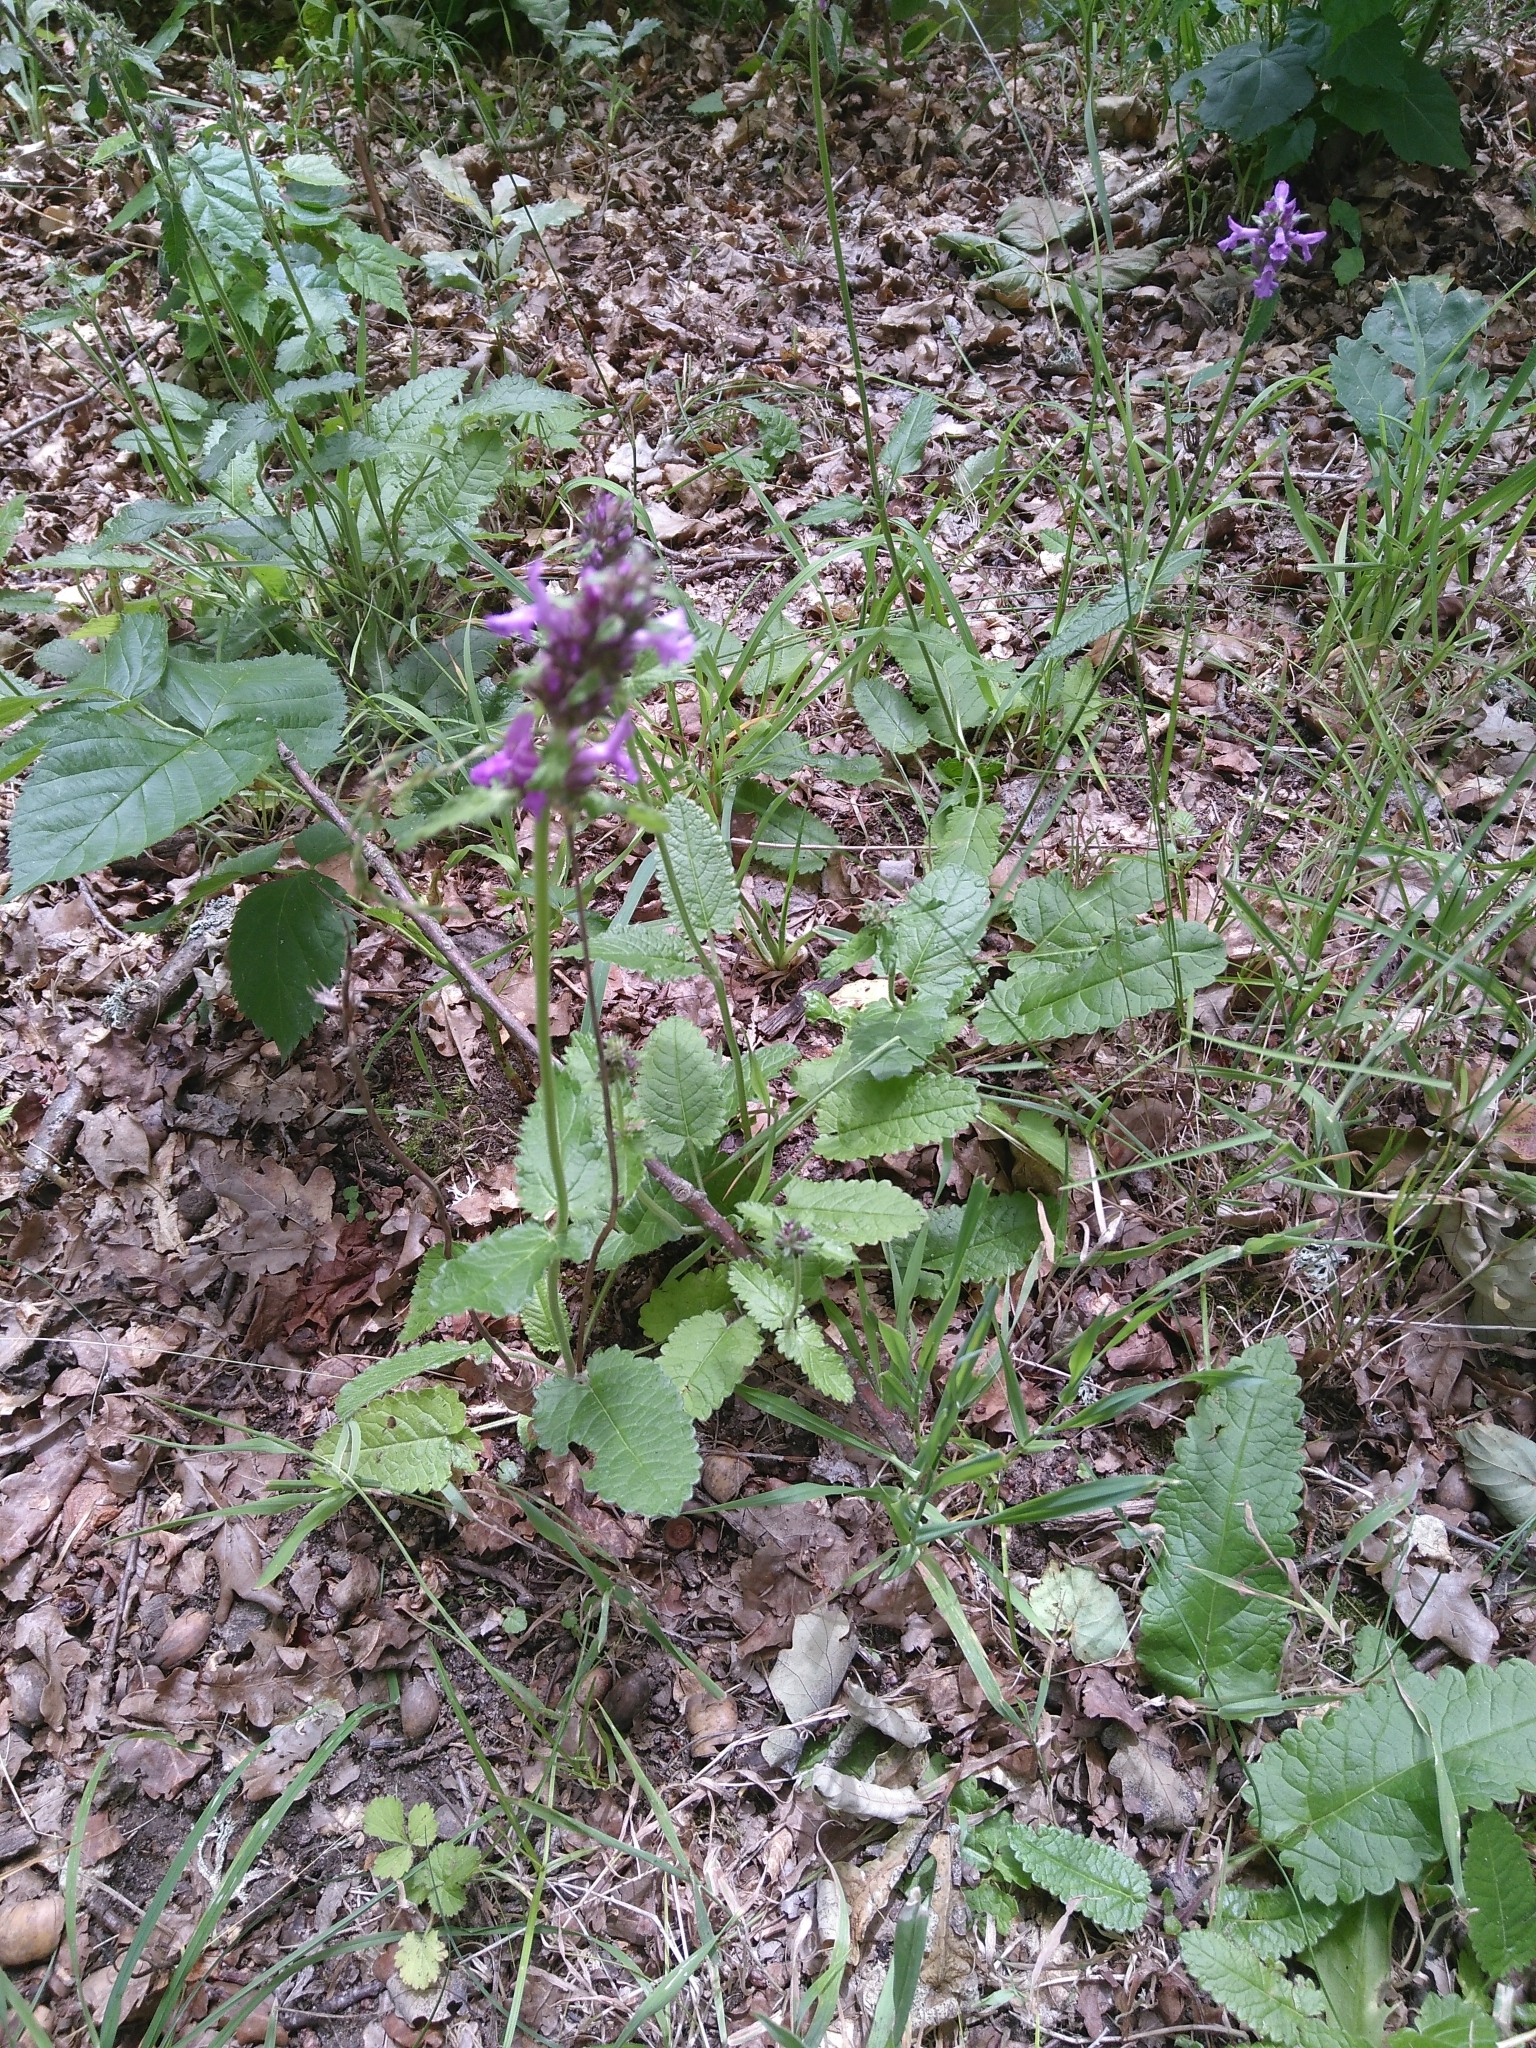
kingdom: Plantae
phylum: Tracheophyta
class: Magnoliopsida
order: Lamiales
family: Lamiaceae
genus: Betonica
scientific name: Betonica officinalis
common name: Bishop's-wort
